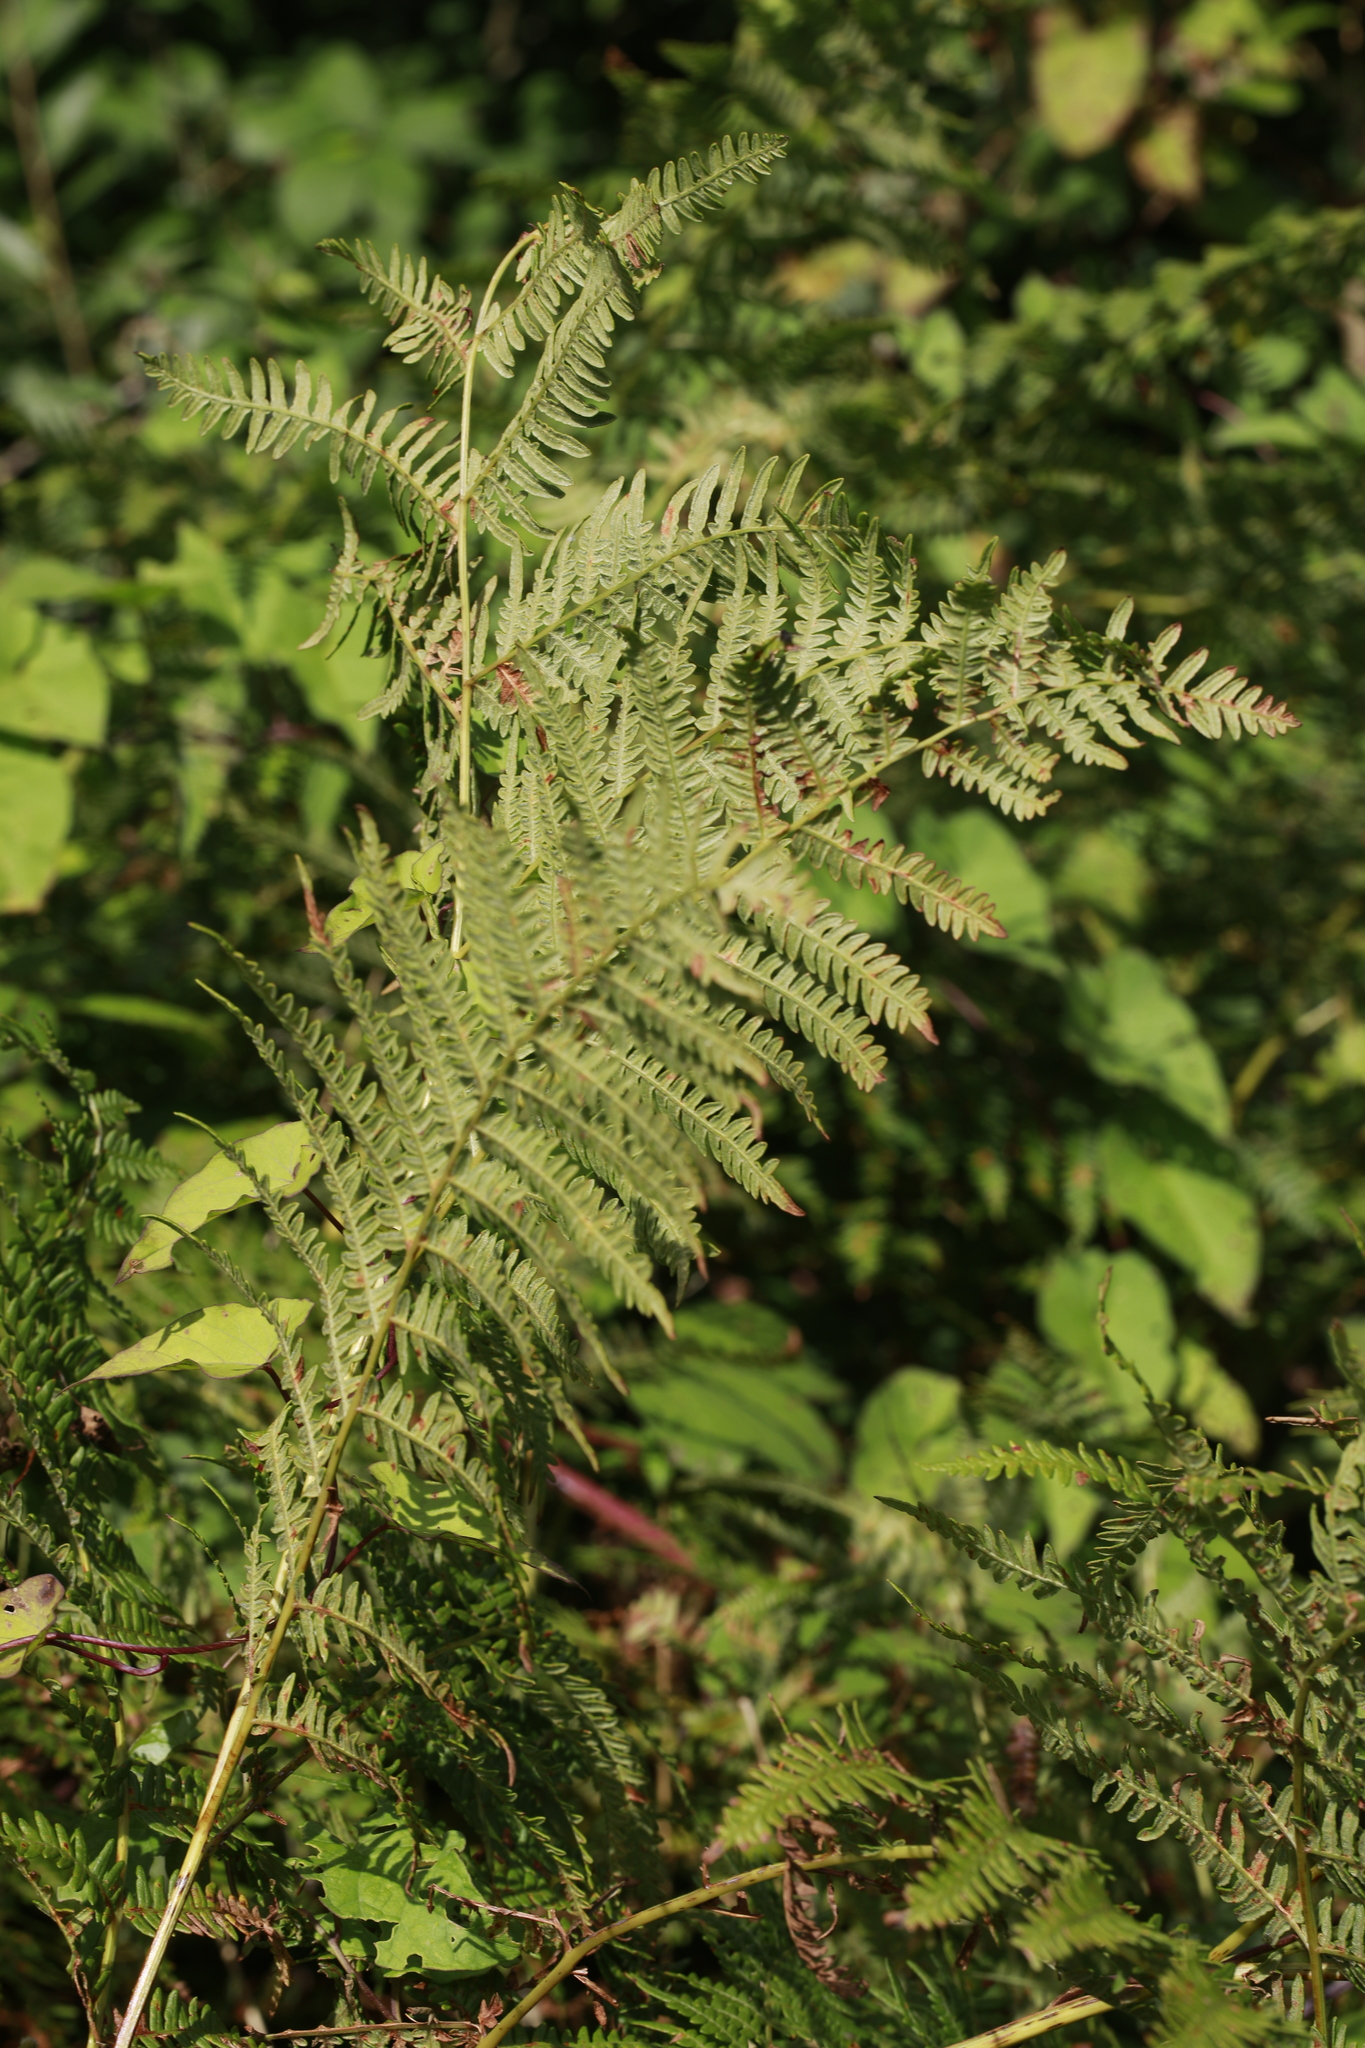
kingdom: Plantae
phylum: Tracheophyta
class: Polypodiopsida
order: Polypodiales
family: Dennstaedtiaceae
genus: Pteridium
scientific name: Pteridium aquilinum
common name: Bracken
